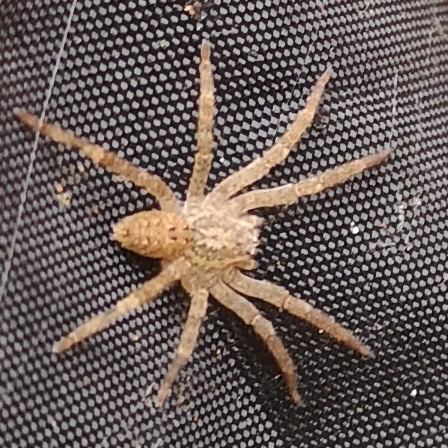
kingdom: Animalia
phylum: Arthropoda
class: Arachnida
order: Araneae
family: Zoropsidae
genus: Zoropsis
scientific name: Zoropsis spinimana
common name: Zoropsid spider
